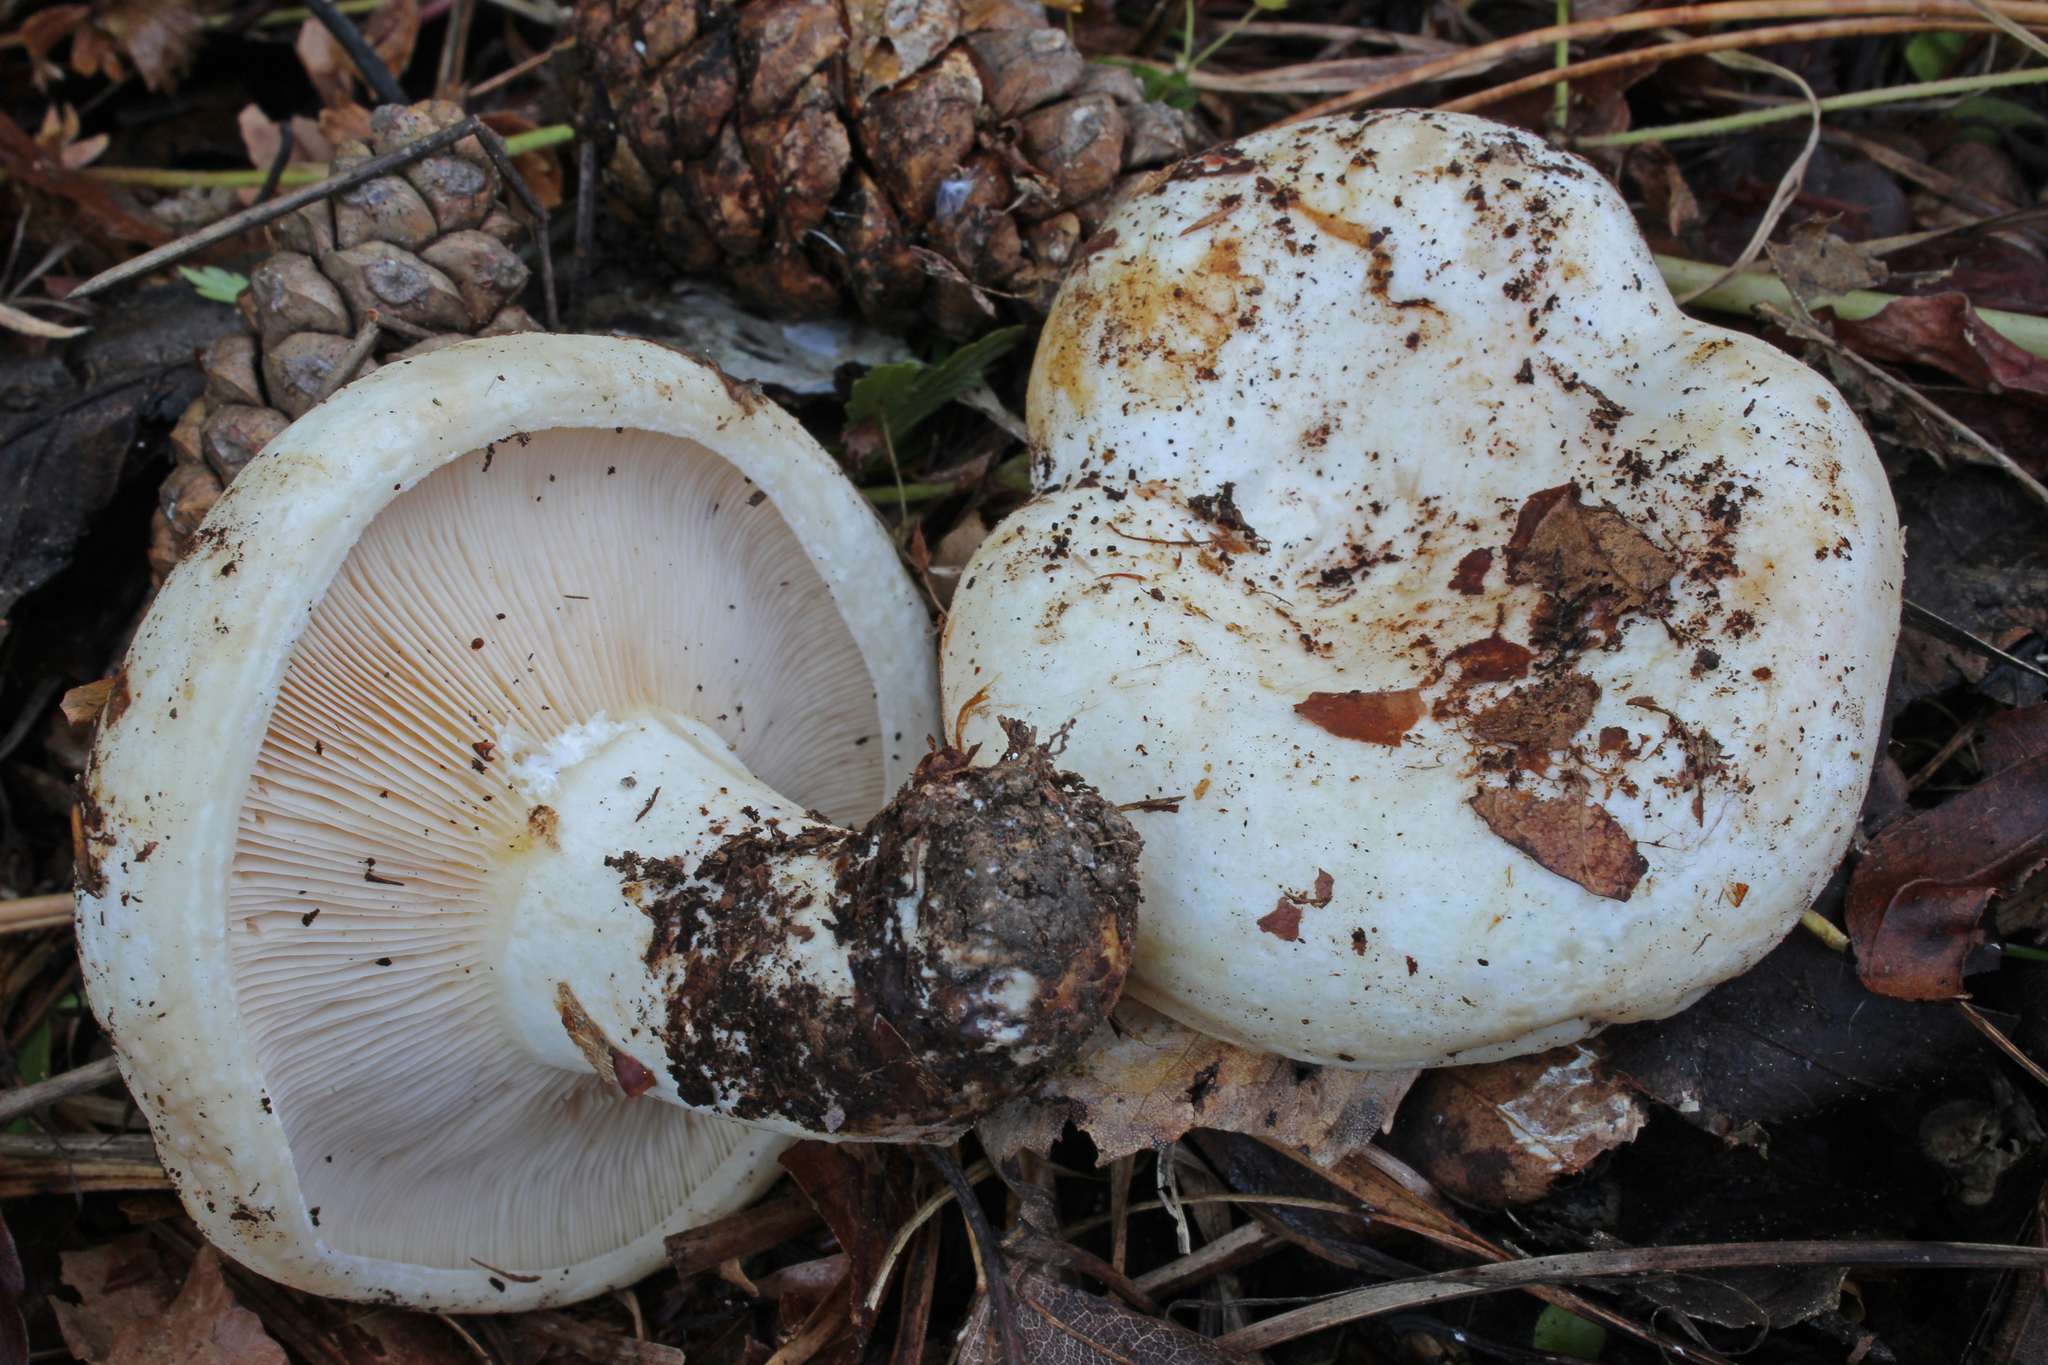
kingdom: Fungi
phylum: Basidiomycota
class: Agaricomycetes
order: Russulales
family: Russulaceae
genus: Lactarius
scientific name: Lactarius resimus
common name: Rollrim milkcap
